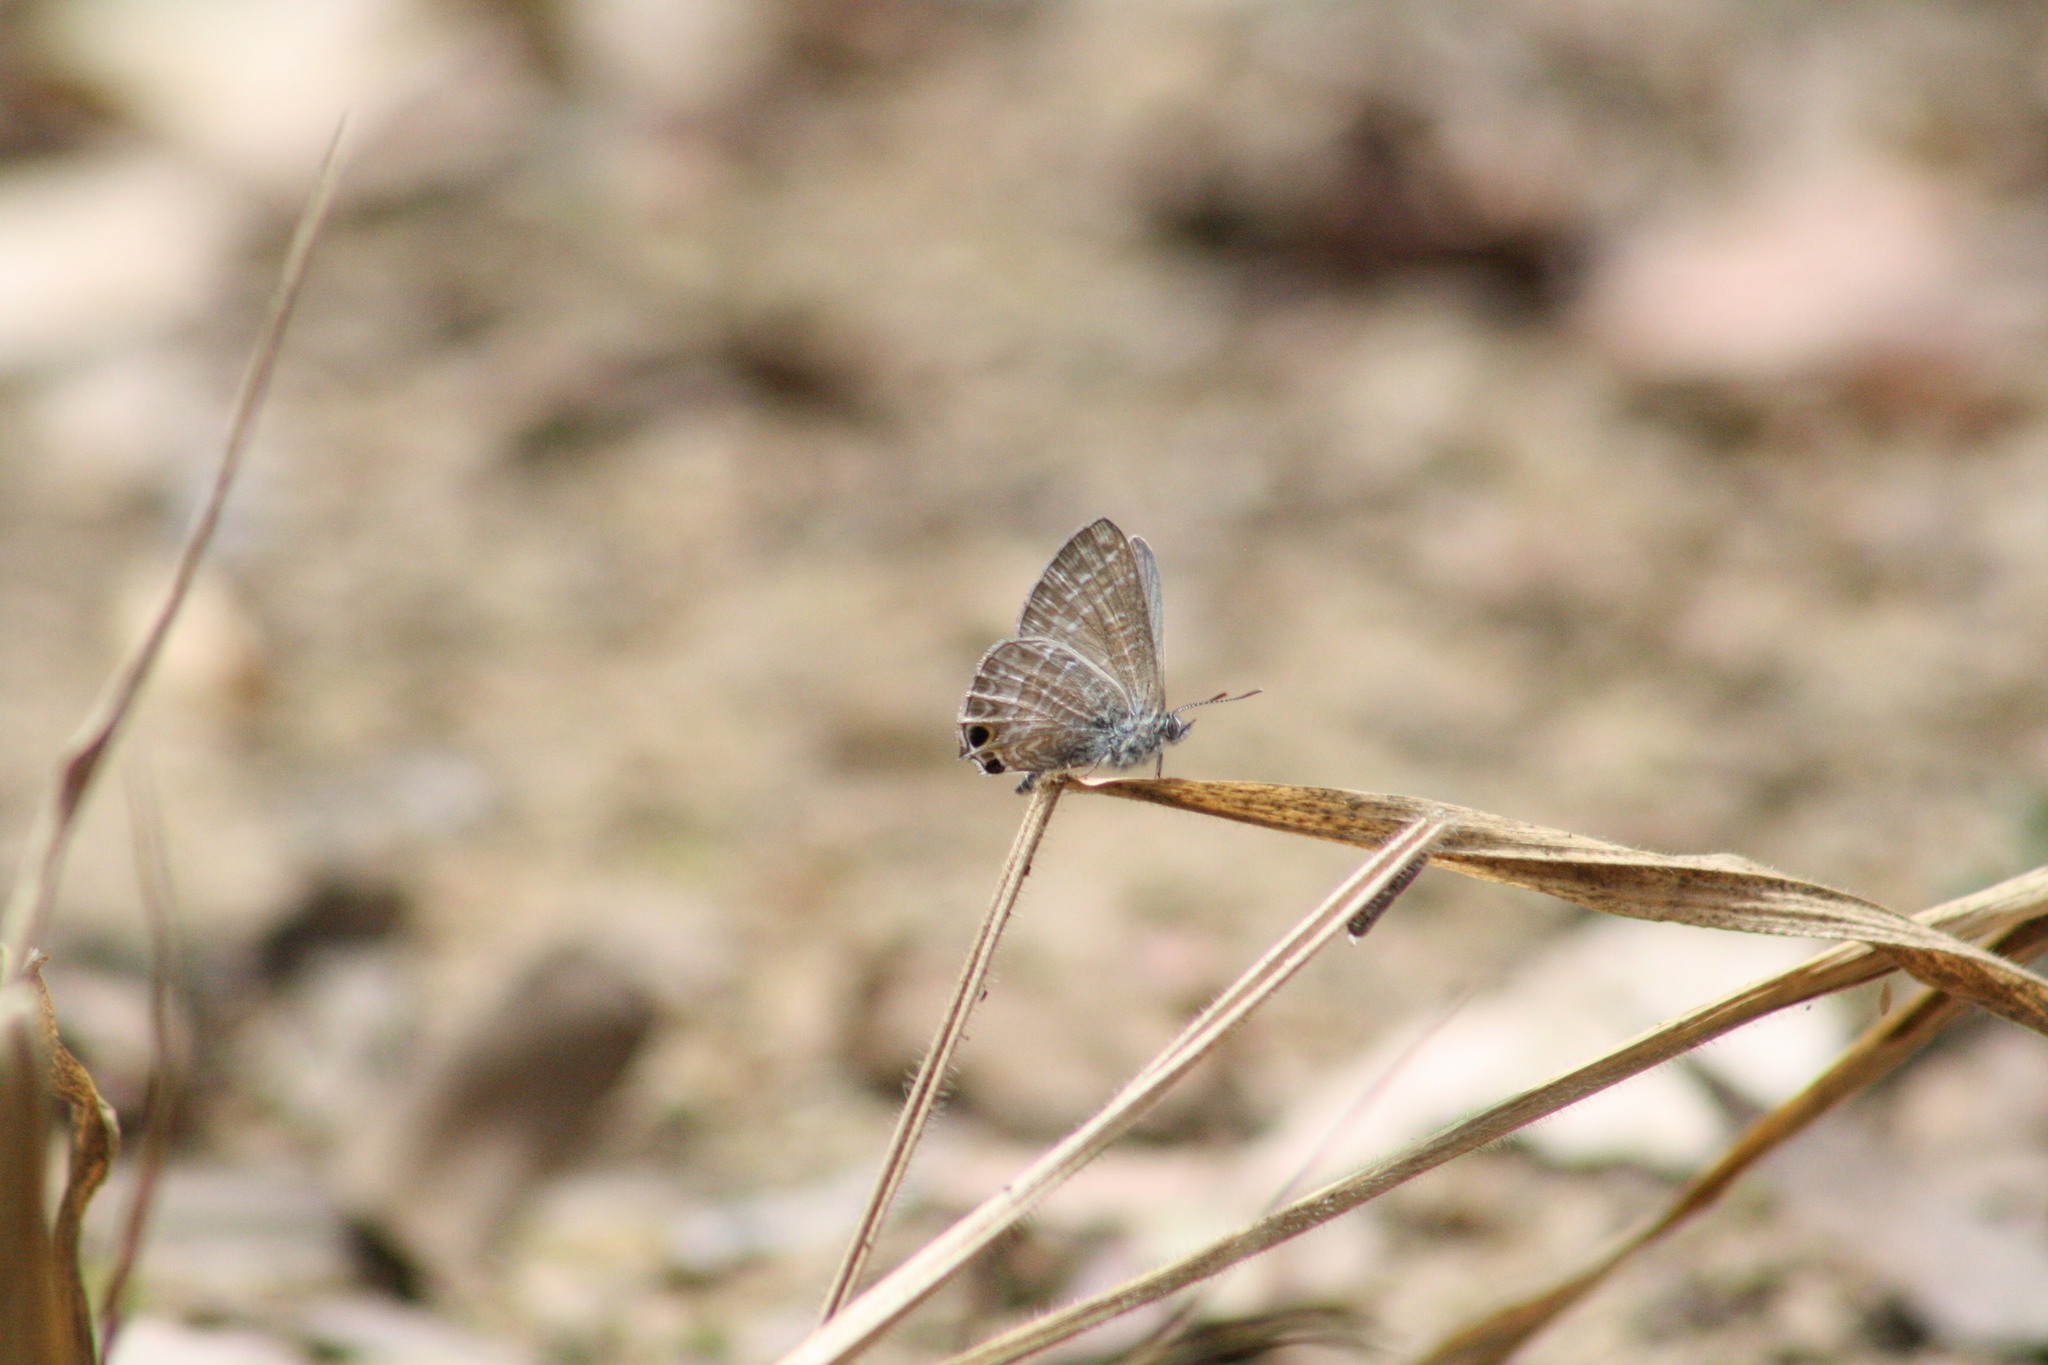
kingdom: Animalia
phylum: Arthropoda
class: Insecta
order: Lepidoptera
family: Lycaenidae
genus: Theclinesthes
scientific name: Theclinesthes onycha
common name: Cycad blue
